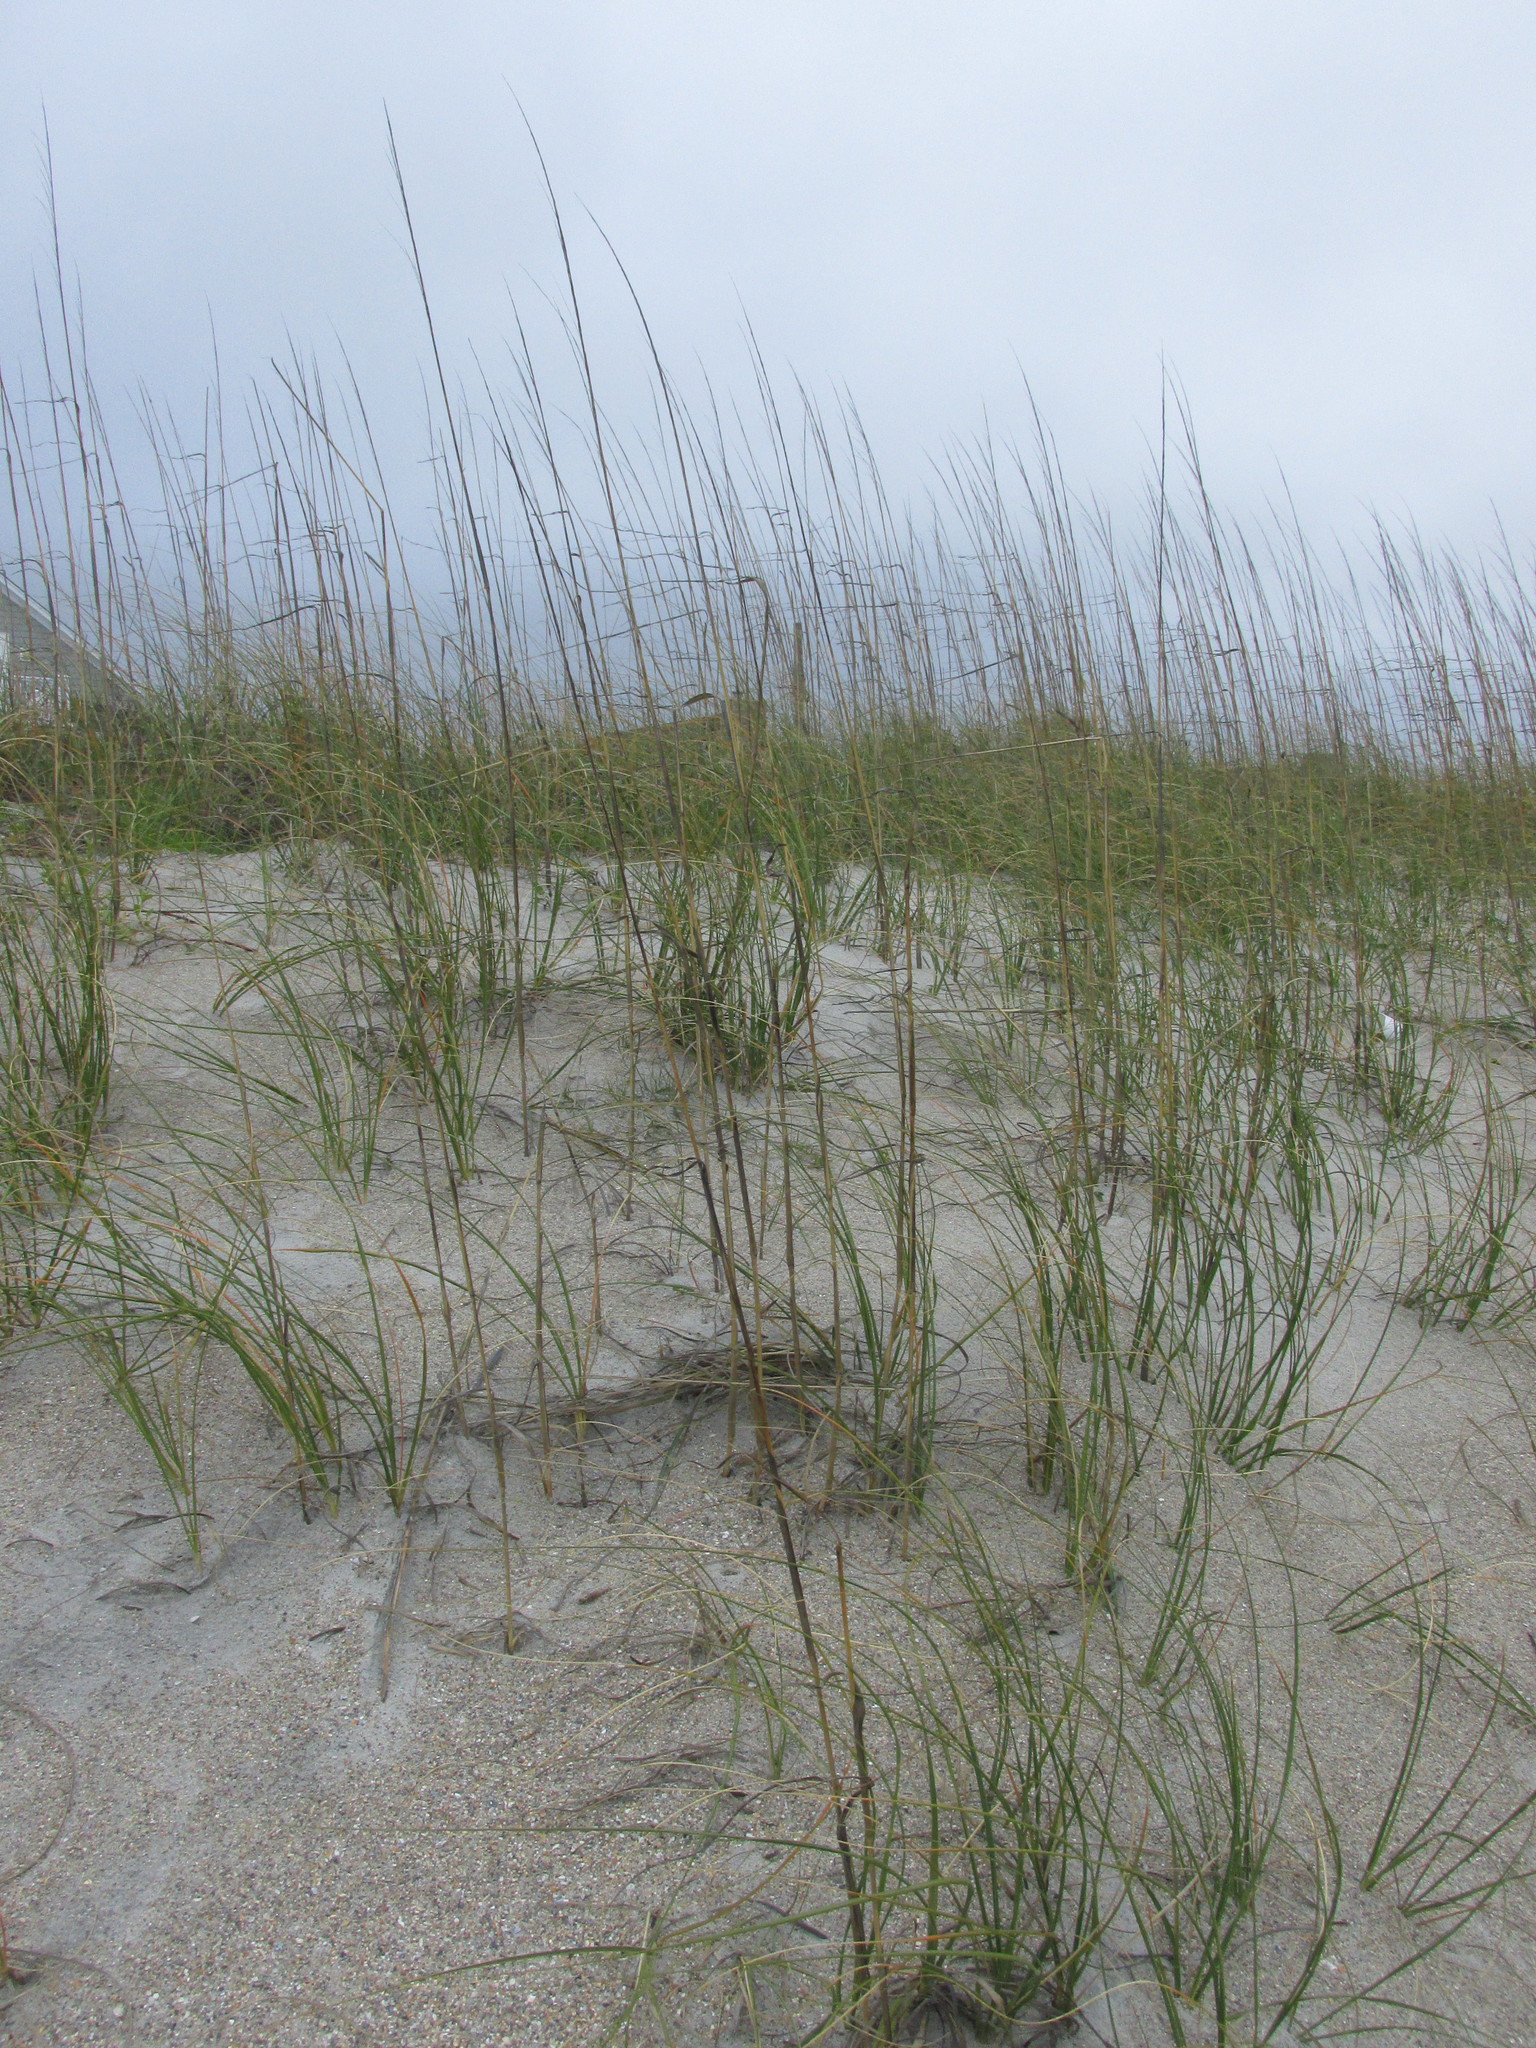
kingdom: Plantae
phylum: Tracheophyta
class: Liliopsida
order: Poales
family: Poaceae
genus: Uniola
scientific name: Uniola paniculata
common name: Seaside-oats
